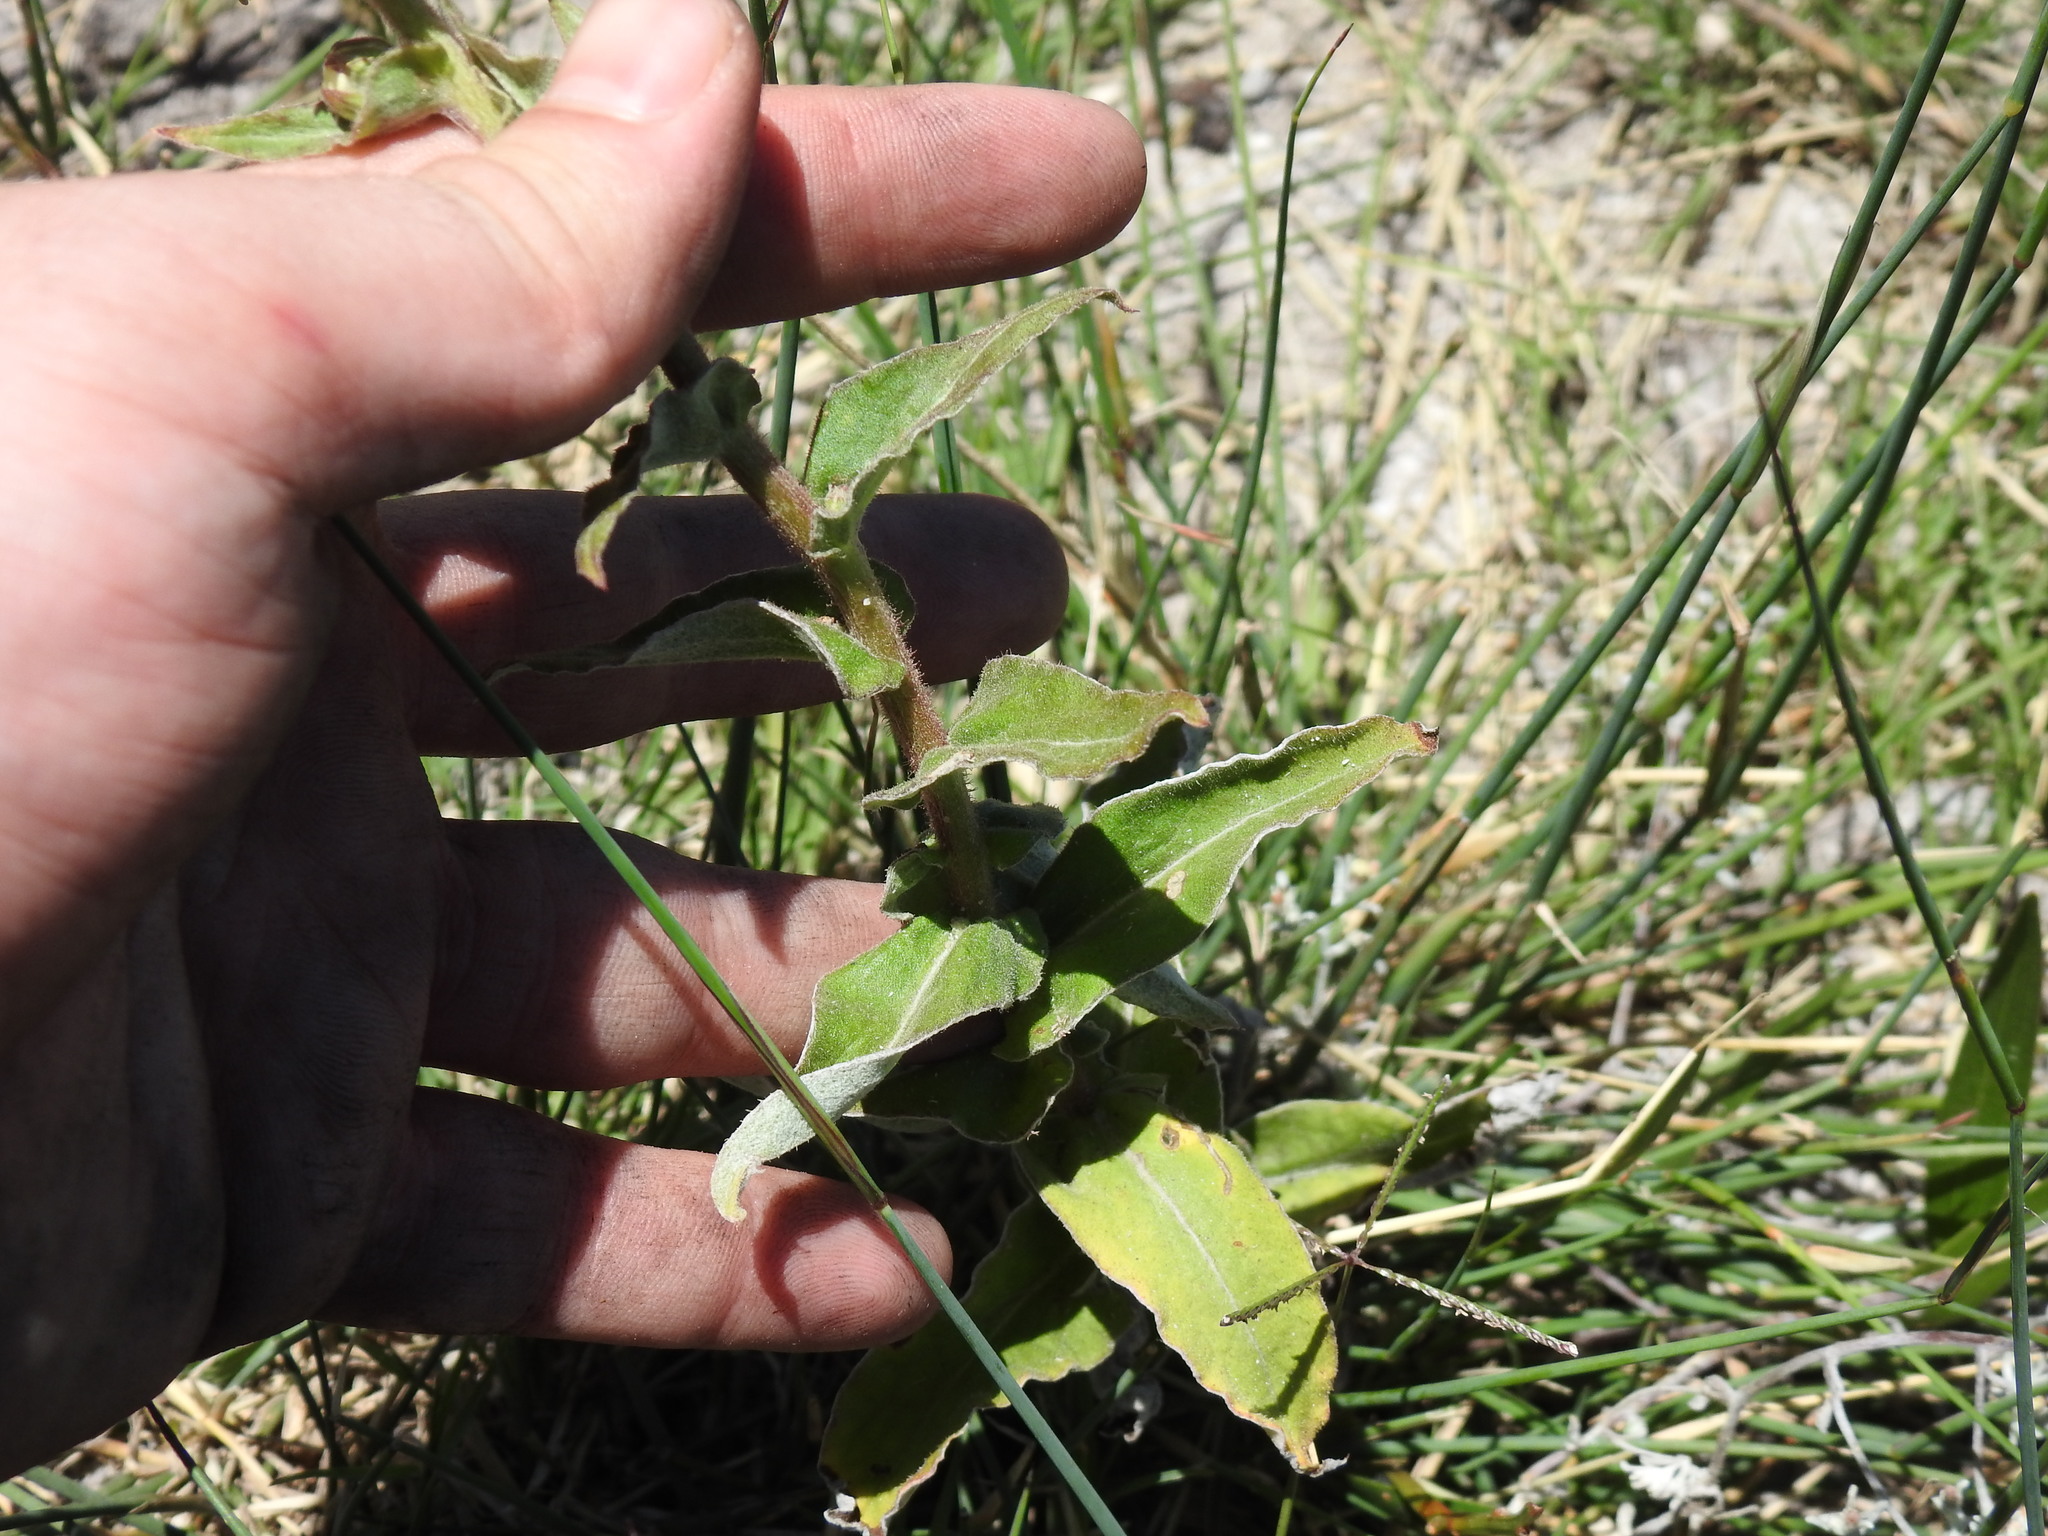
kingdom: Plantae
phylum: Tracheophyta
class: Magnoliopsida
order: Asterales
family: Asteraceae
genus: Helichrysum
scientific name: Helichrysum foetidum
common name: Stinking everlasting
